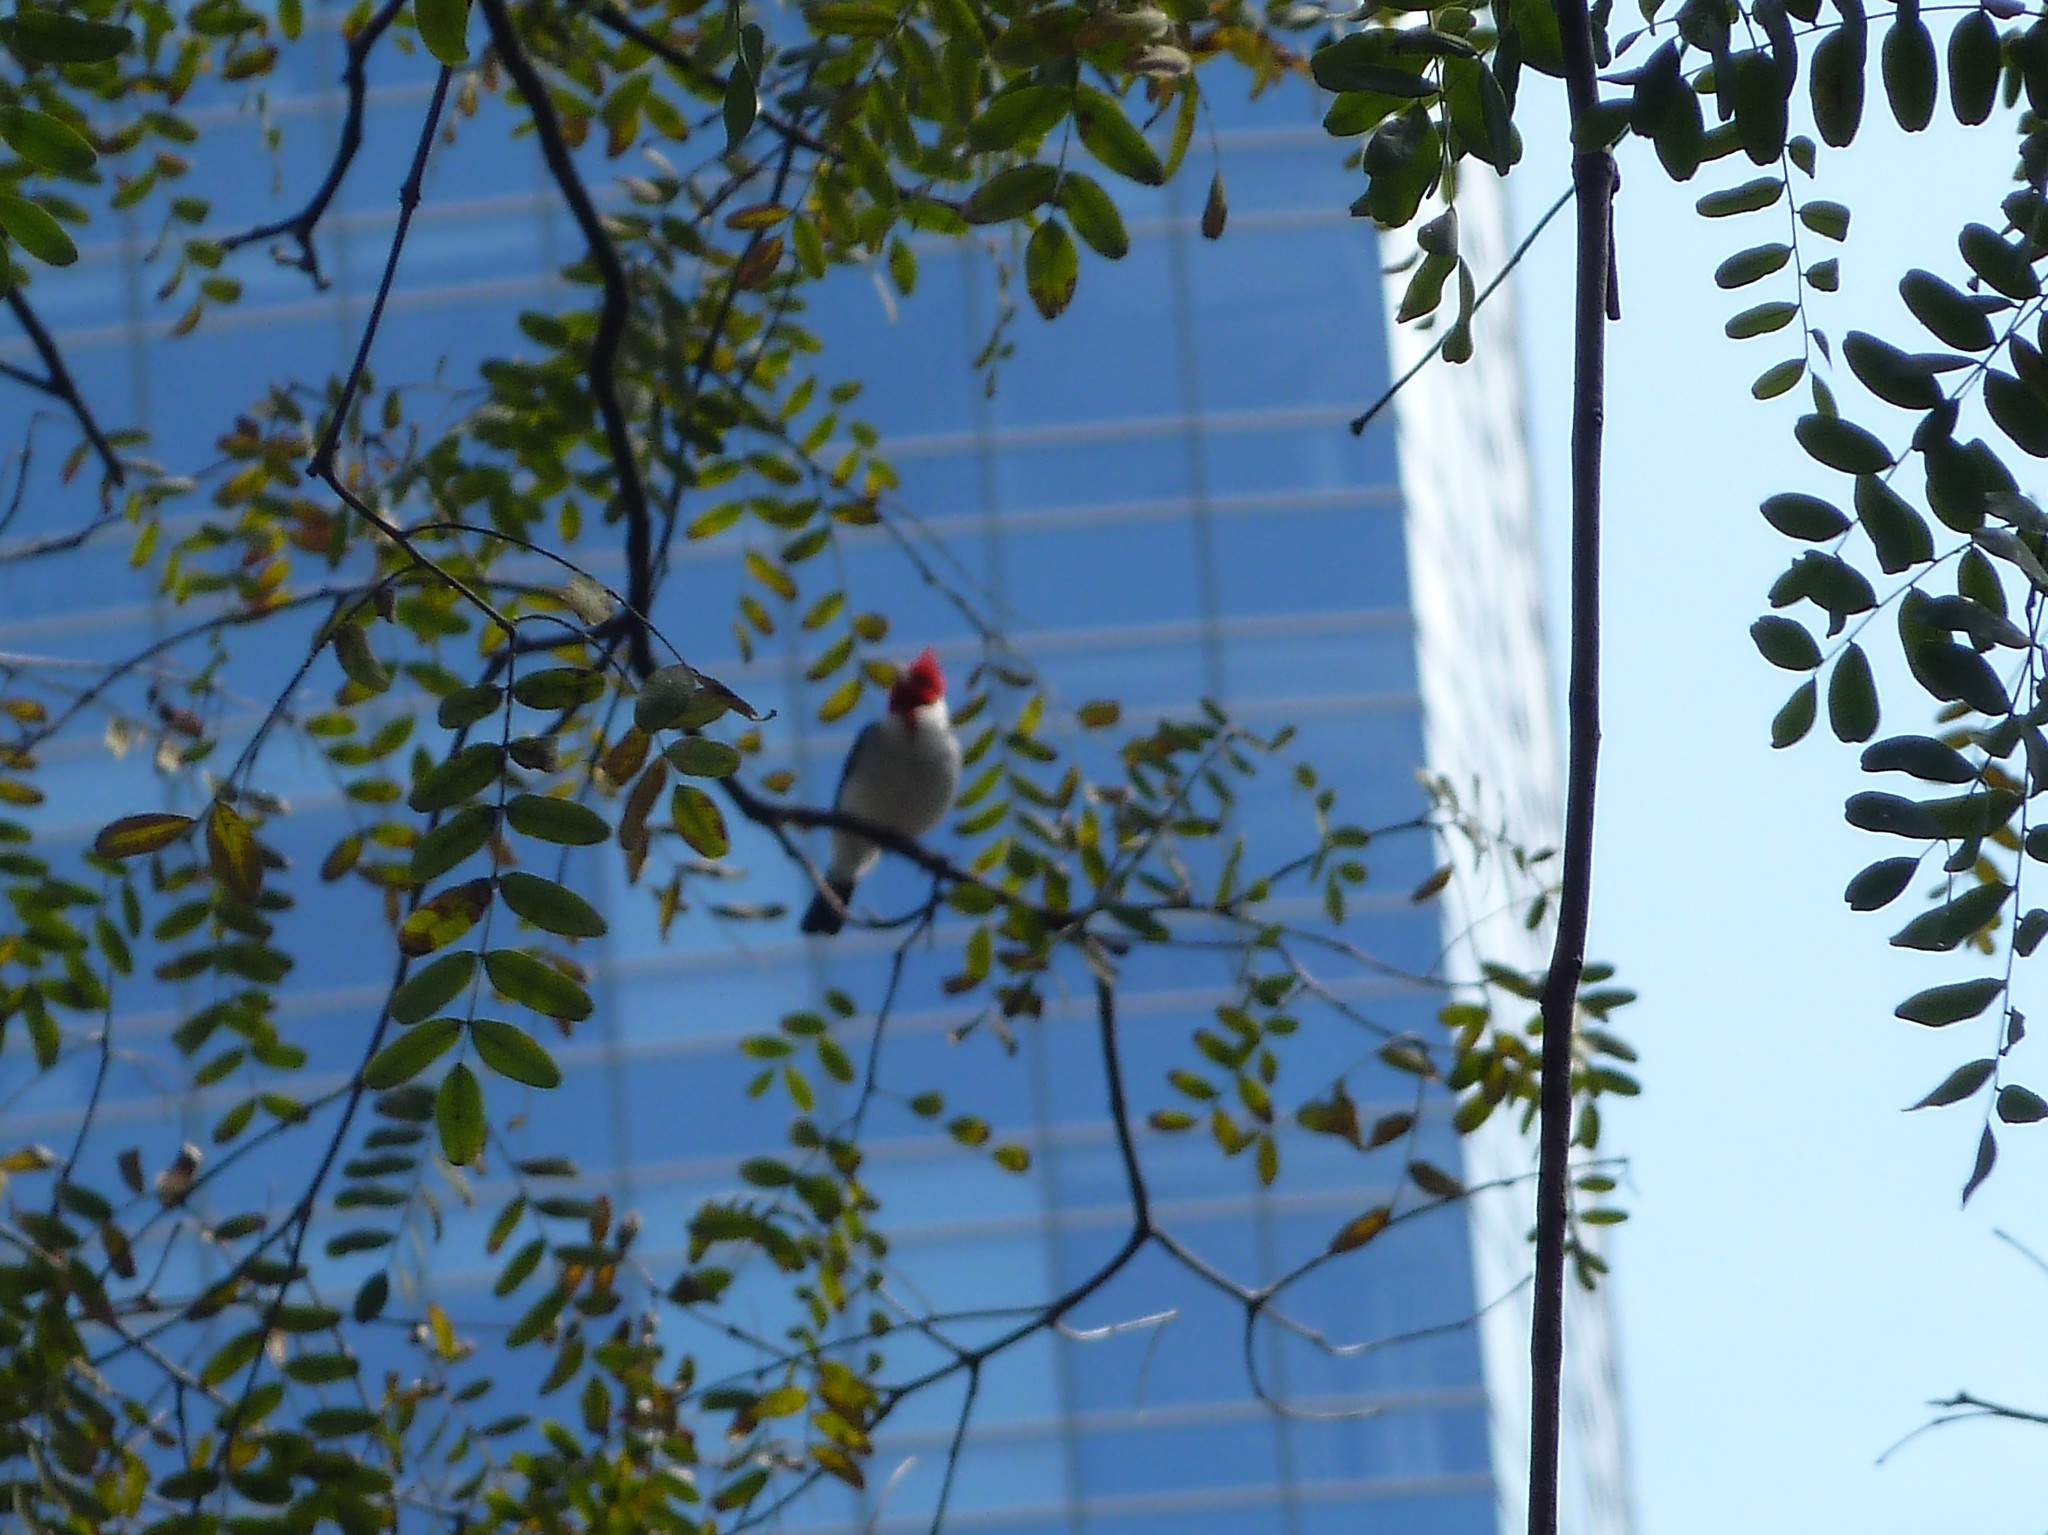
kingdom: Animalia
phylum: Chordata
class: Aves
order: Passeriformes
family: Thraupidae
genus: Paroaria
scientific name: Paroaria coronata
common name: Red-crested cardinal
